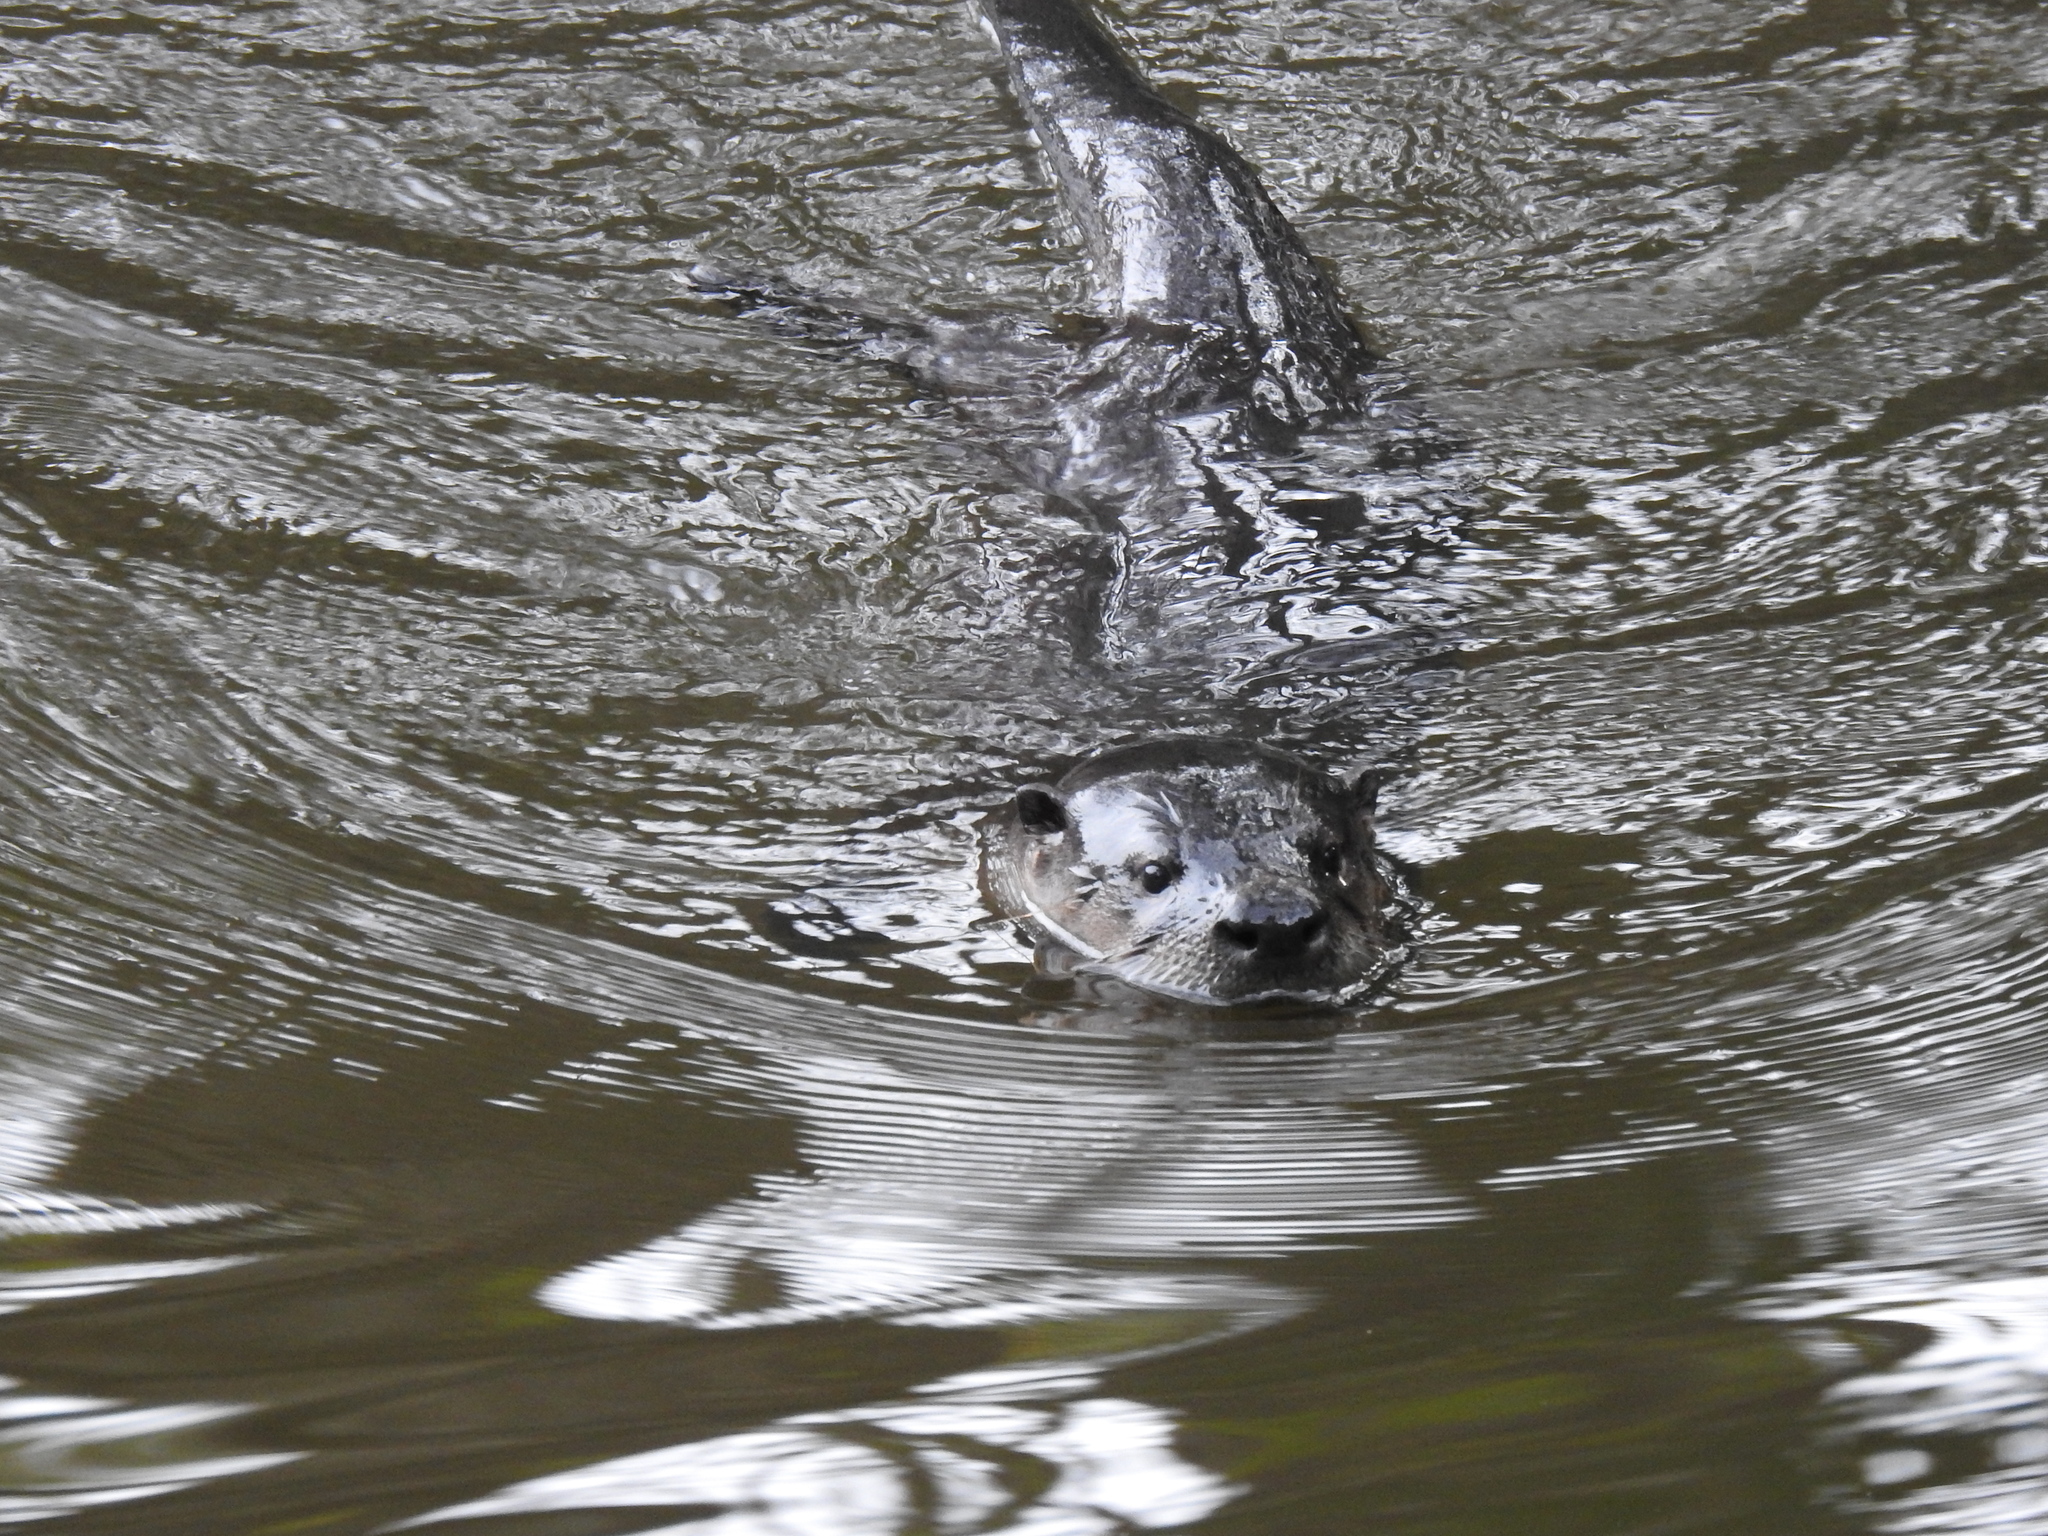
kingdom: Animalia
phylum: Chordata
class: Mammalia
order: Carnivora
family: Mustelidae
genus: Lontra
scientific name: Lontra canadensis
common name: North american river otter
